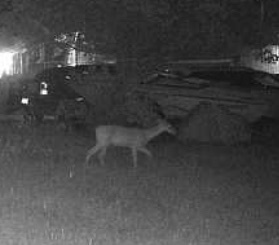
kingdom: Animalia
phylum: Chordata
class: Mammalia
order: Artiodactyla
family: Cervidae
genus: Odocoileus
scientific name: Odocoileus virginianus
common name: White-tailed deer
